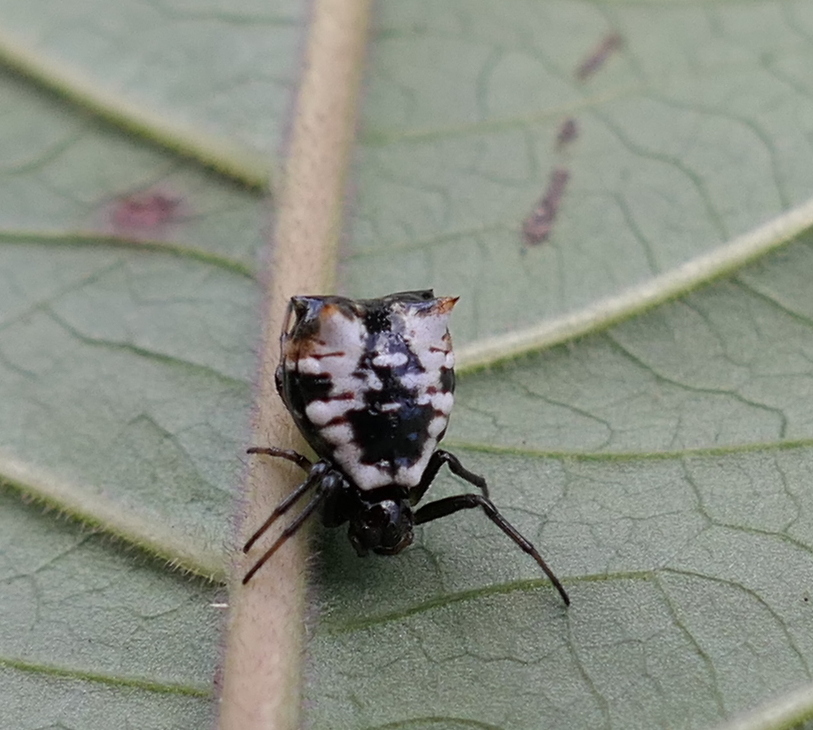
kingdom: Animalia
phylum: Arthropoda
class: Arachnida
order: Araneae
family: Araneidae
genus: Micrathena
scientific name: Micrathena patruelis
